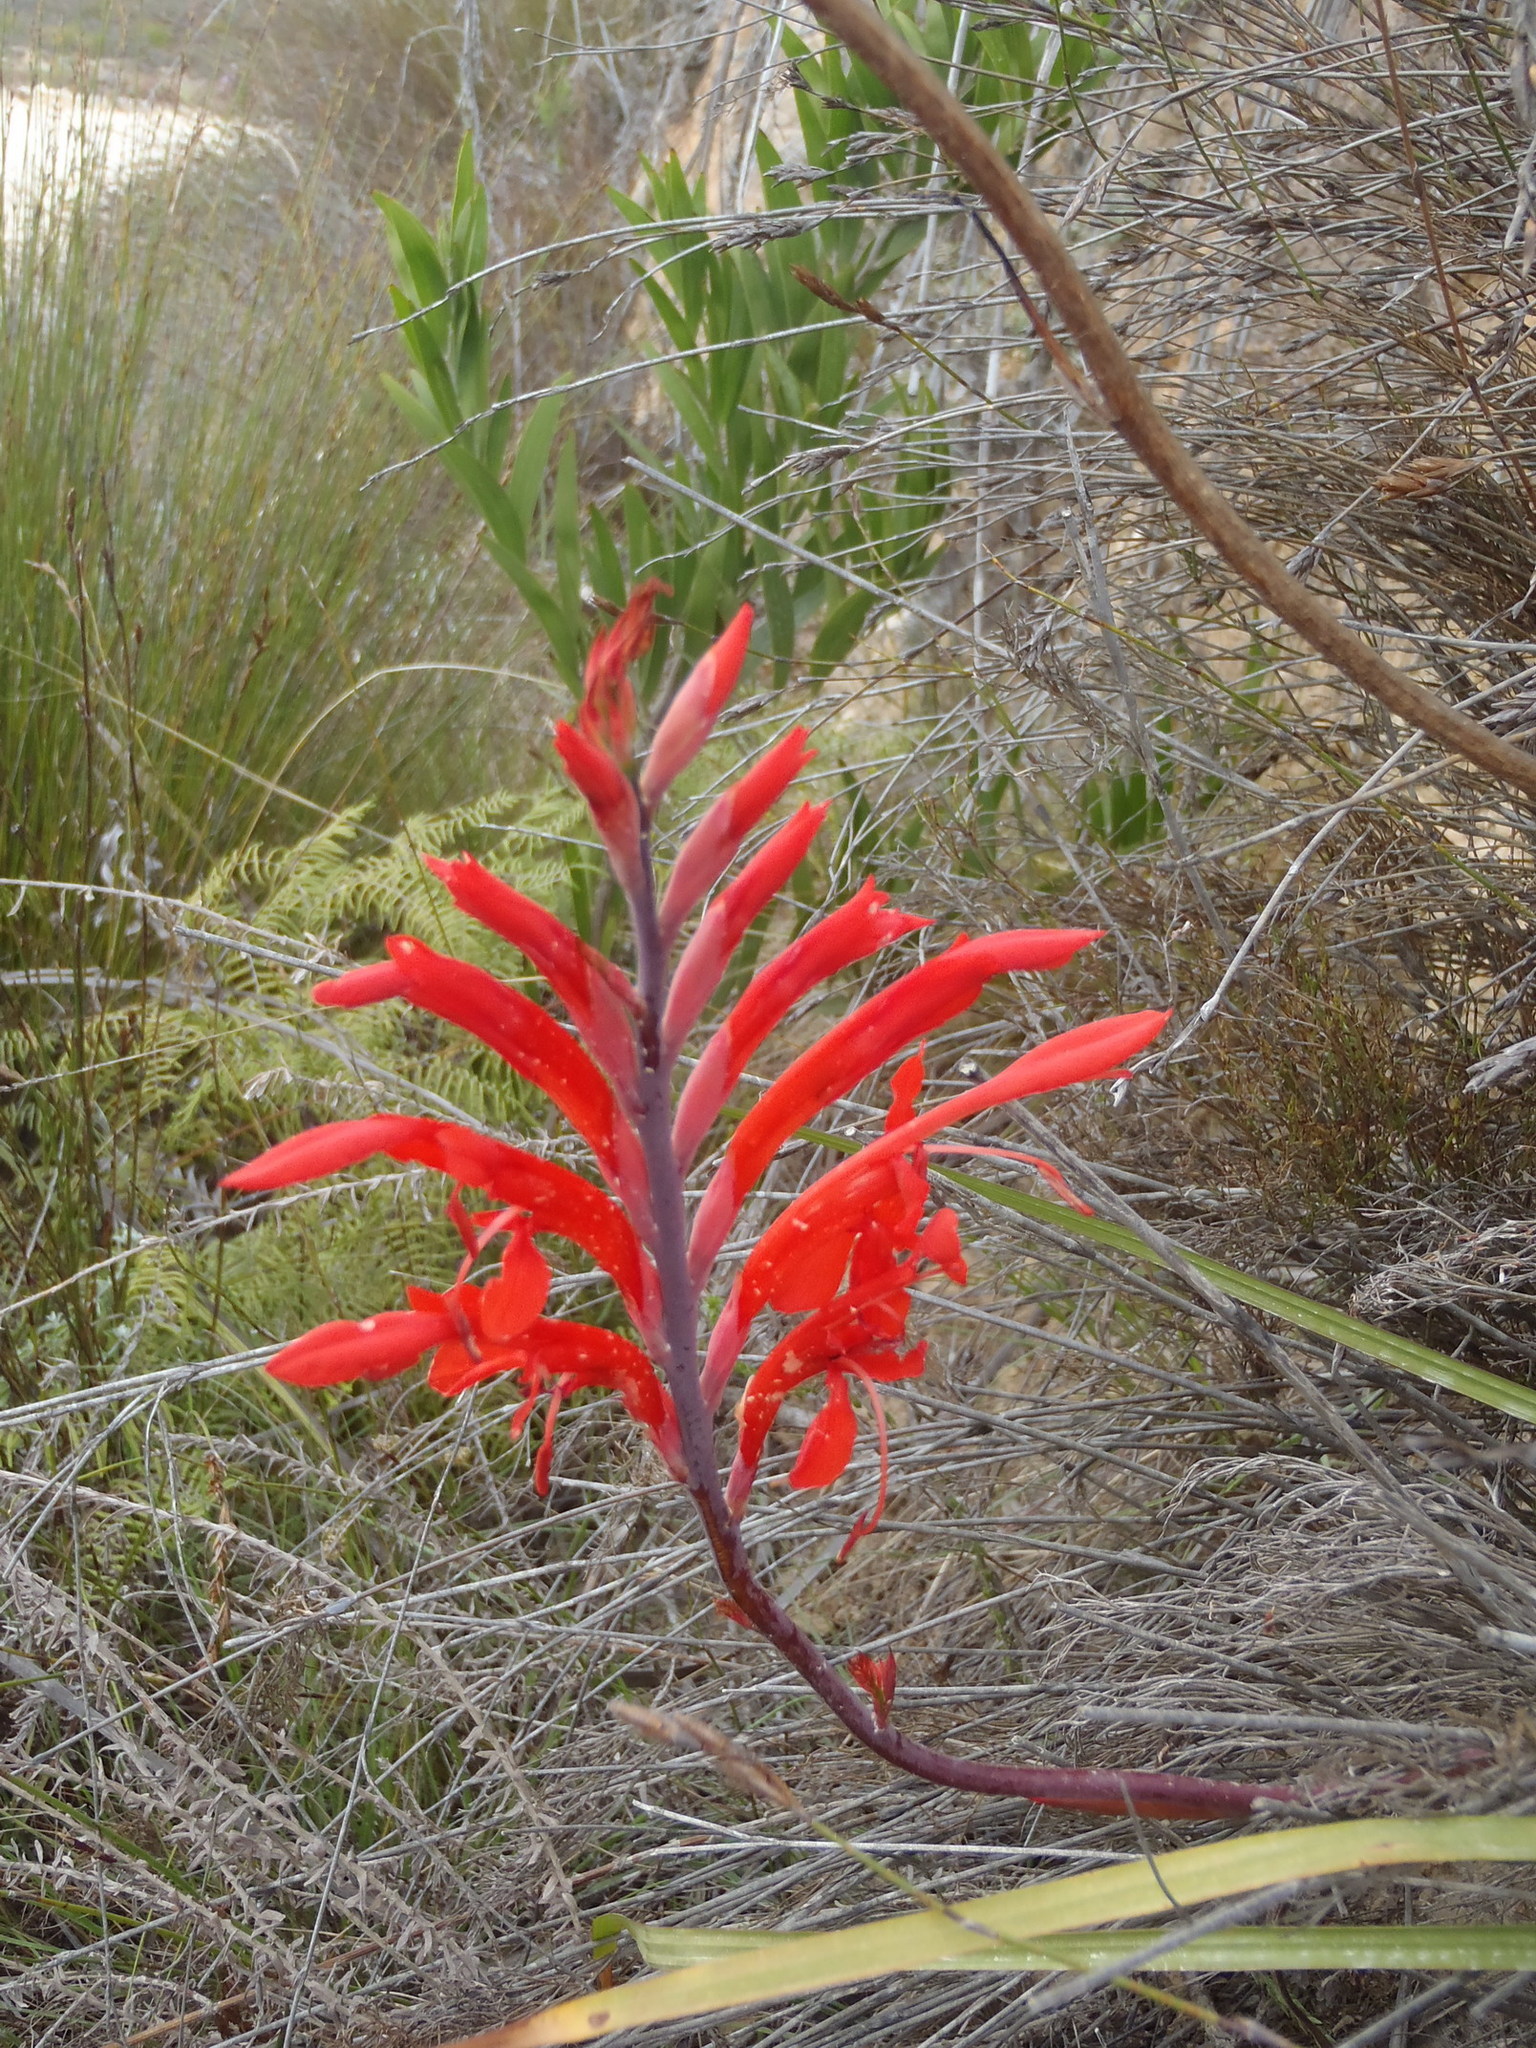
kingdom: Plantae
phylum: Tracheophyta
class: Liliopsida
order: Asparagales
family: Iridaceae
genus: Tritoniopsis
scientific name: Tritoniopsis caffra
